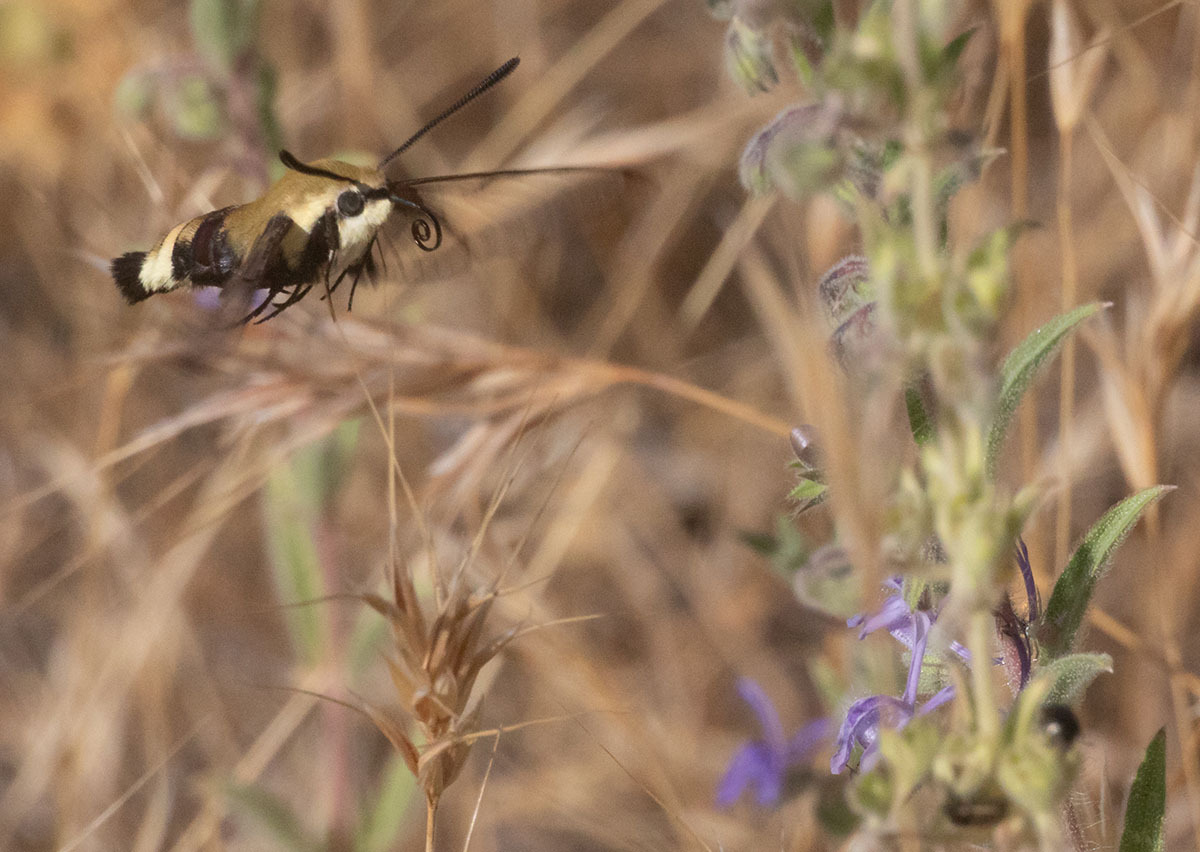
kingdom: Animalia
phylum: Arthropoda
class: Insecta
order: Lepidoptera
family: Sphingidae
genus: Hemaris
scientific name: Hemaris thetis
